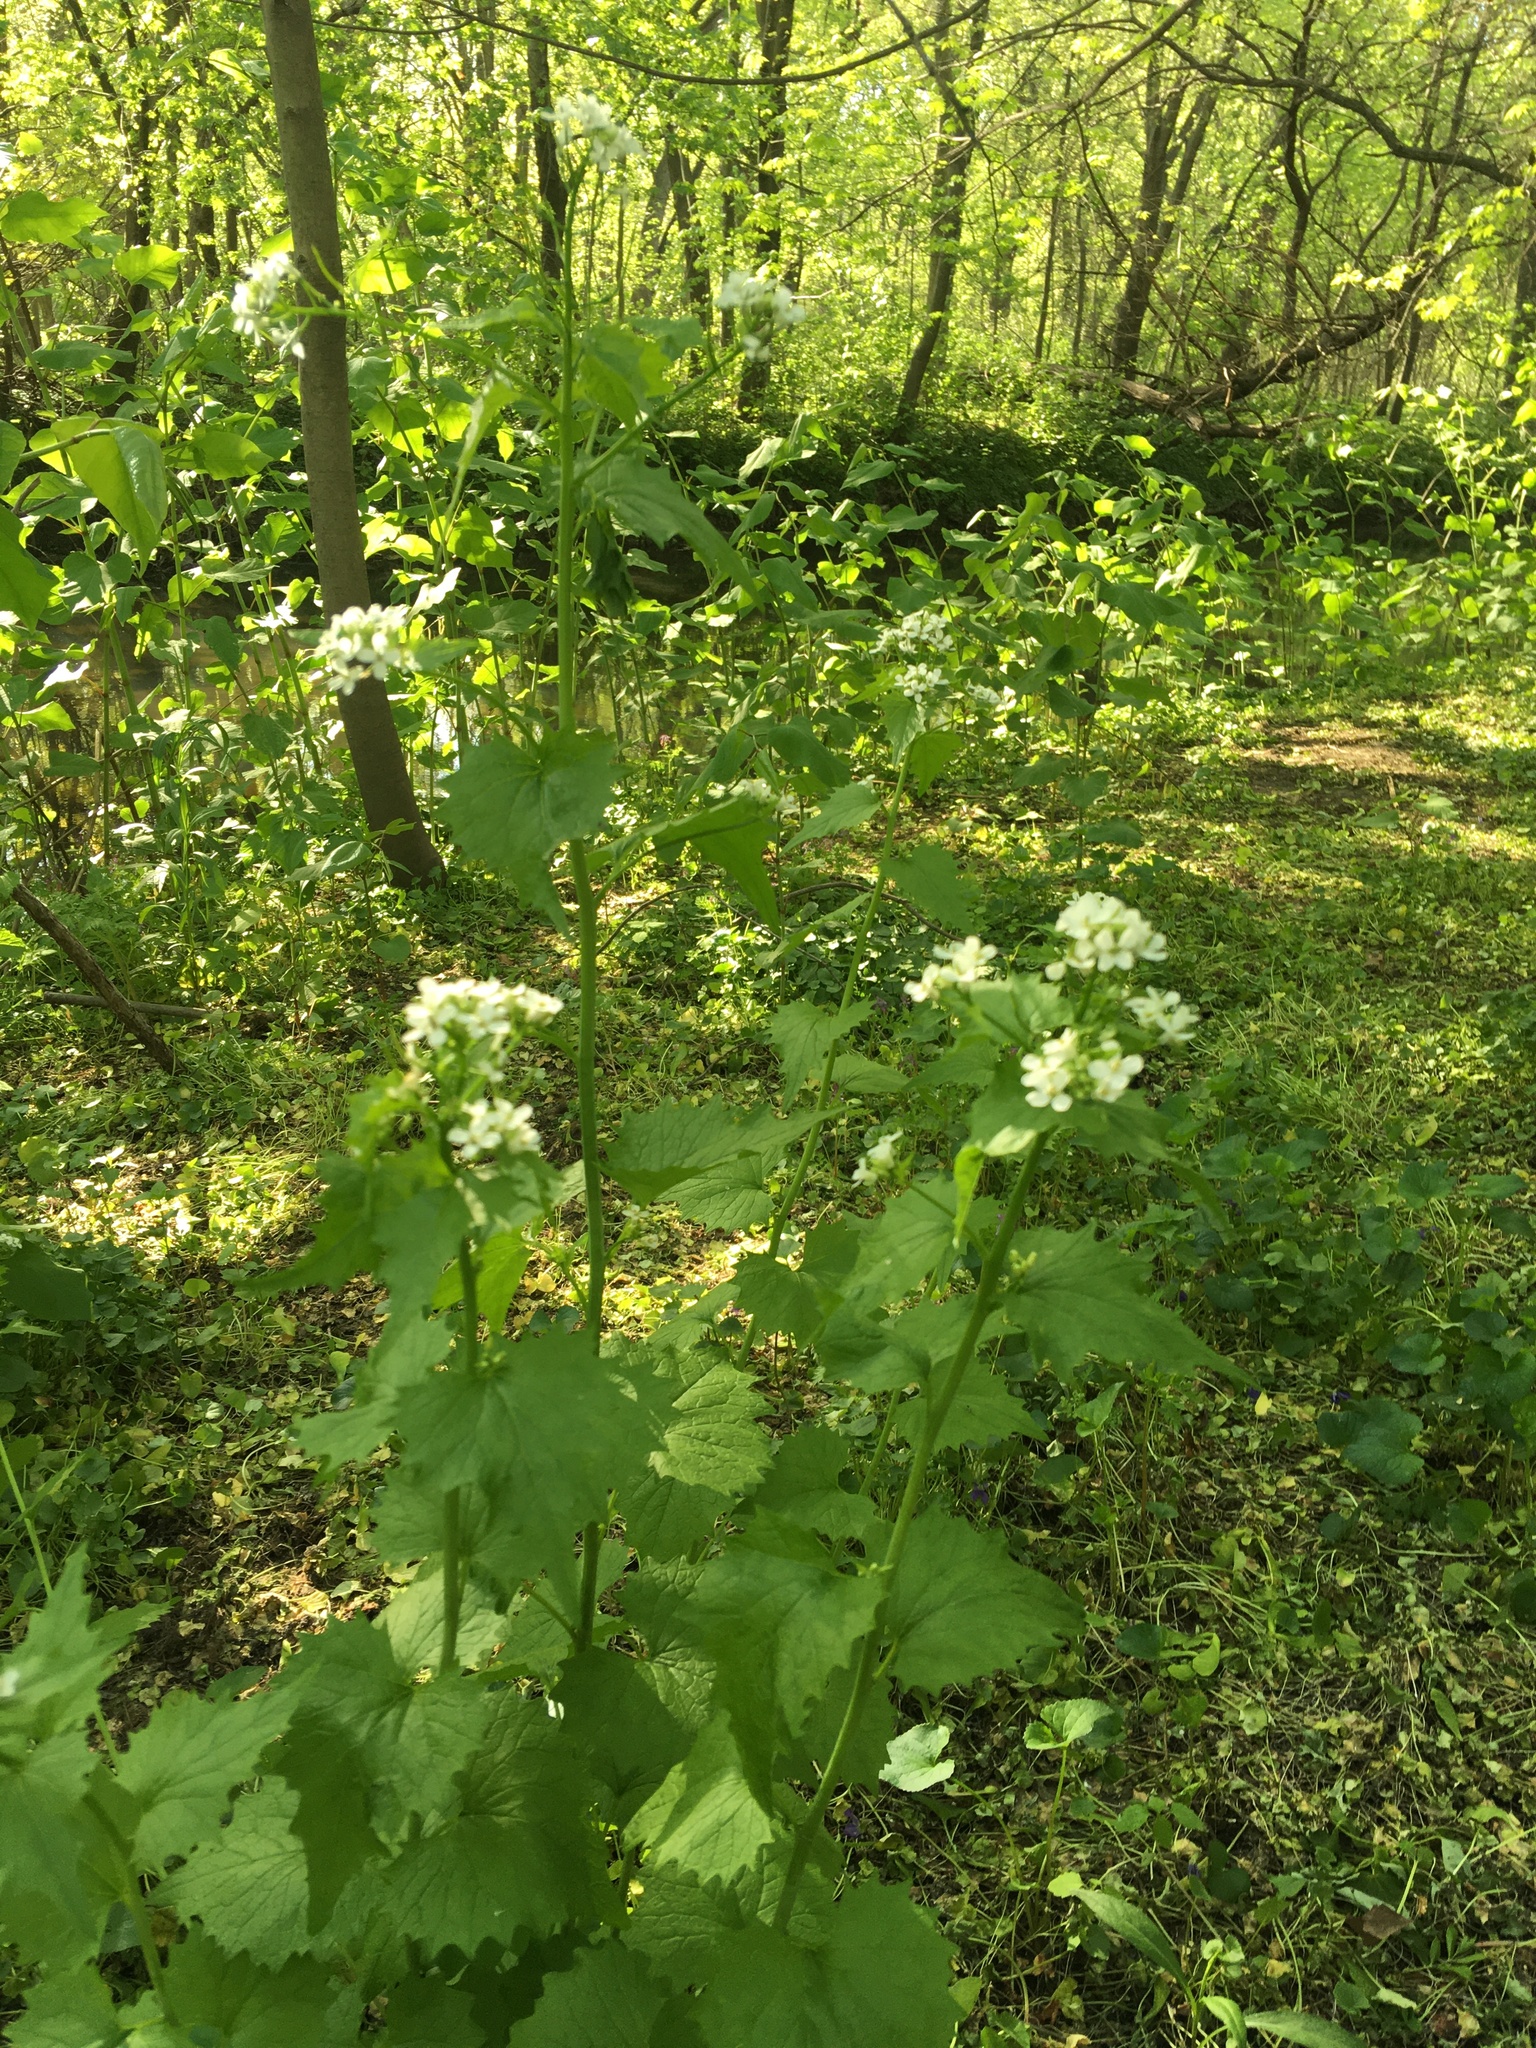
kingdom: Plantae
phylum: Tracheophyta
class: Magnoliopsida
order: Brassicales
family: Brassicaceae
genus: Alliaria
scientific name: Alliaria petiolata
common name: Garlic mustard
